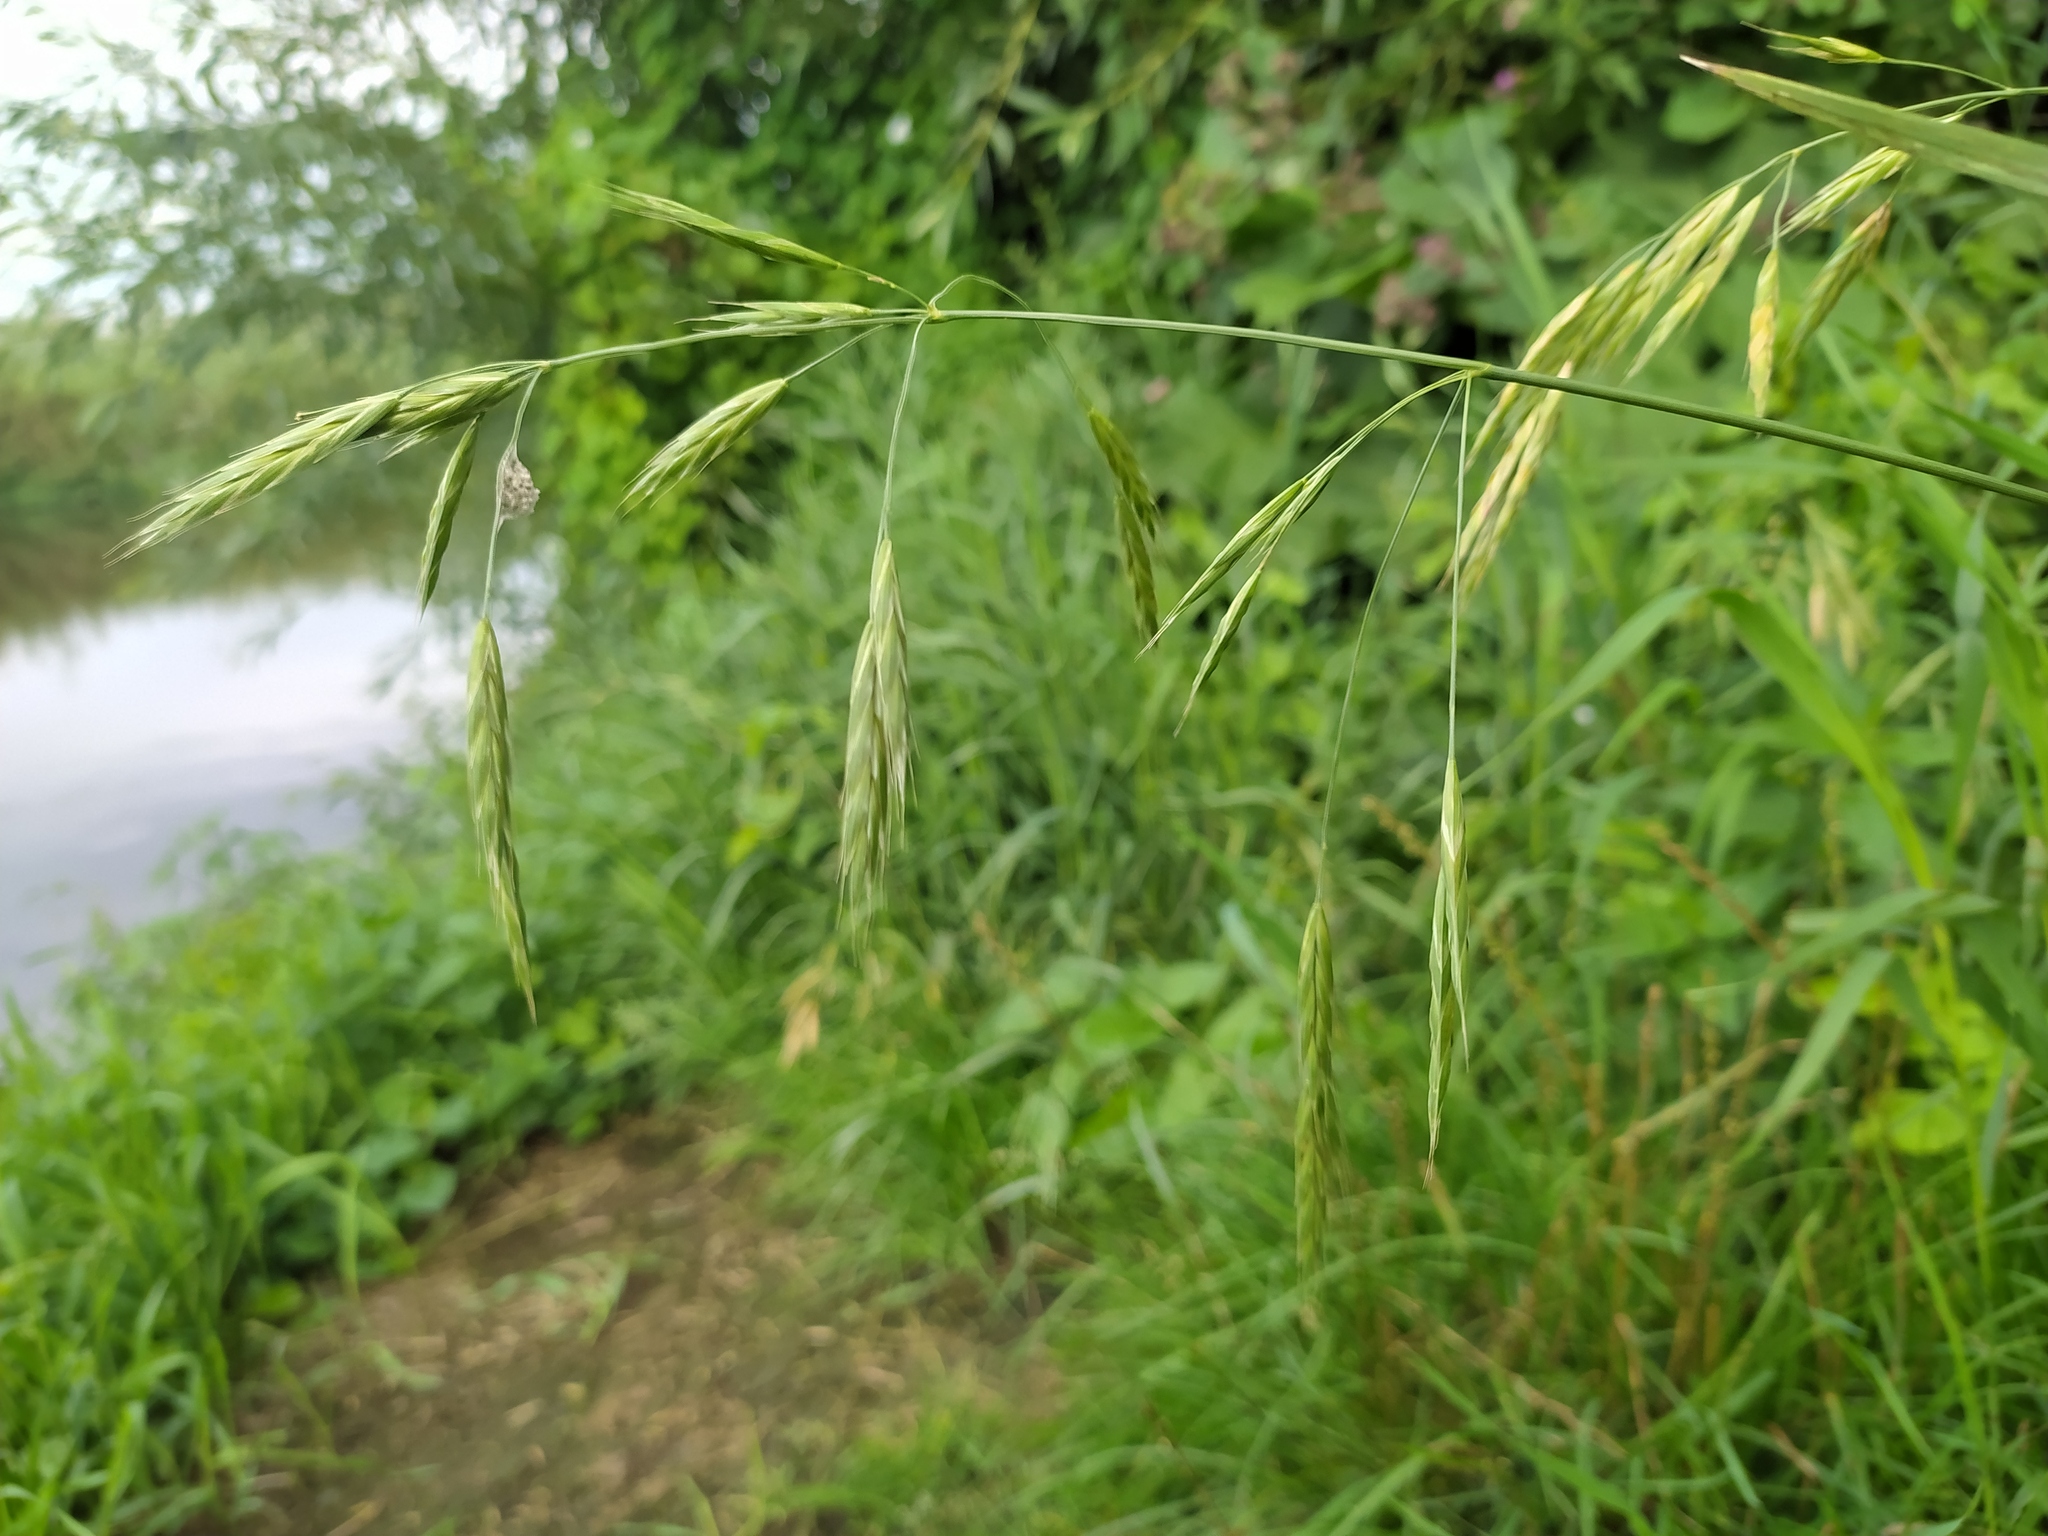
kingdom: Plantae
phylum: Tracheophyta
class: Liliopsida
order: Poales
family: Poaceae
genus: Bromus
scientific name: Bromus carinatus
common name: Mountain brome
